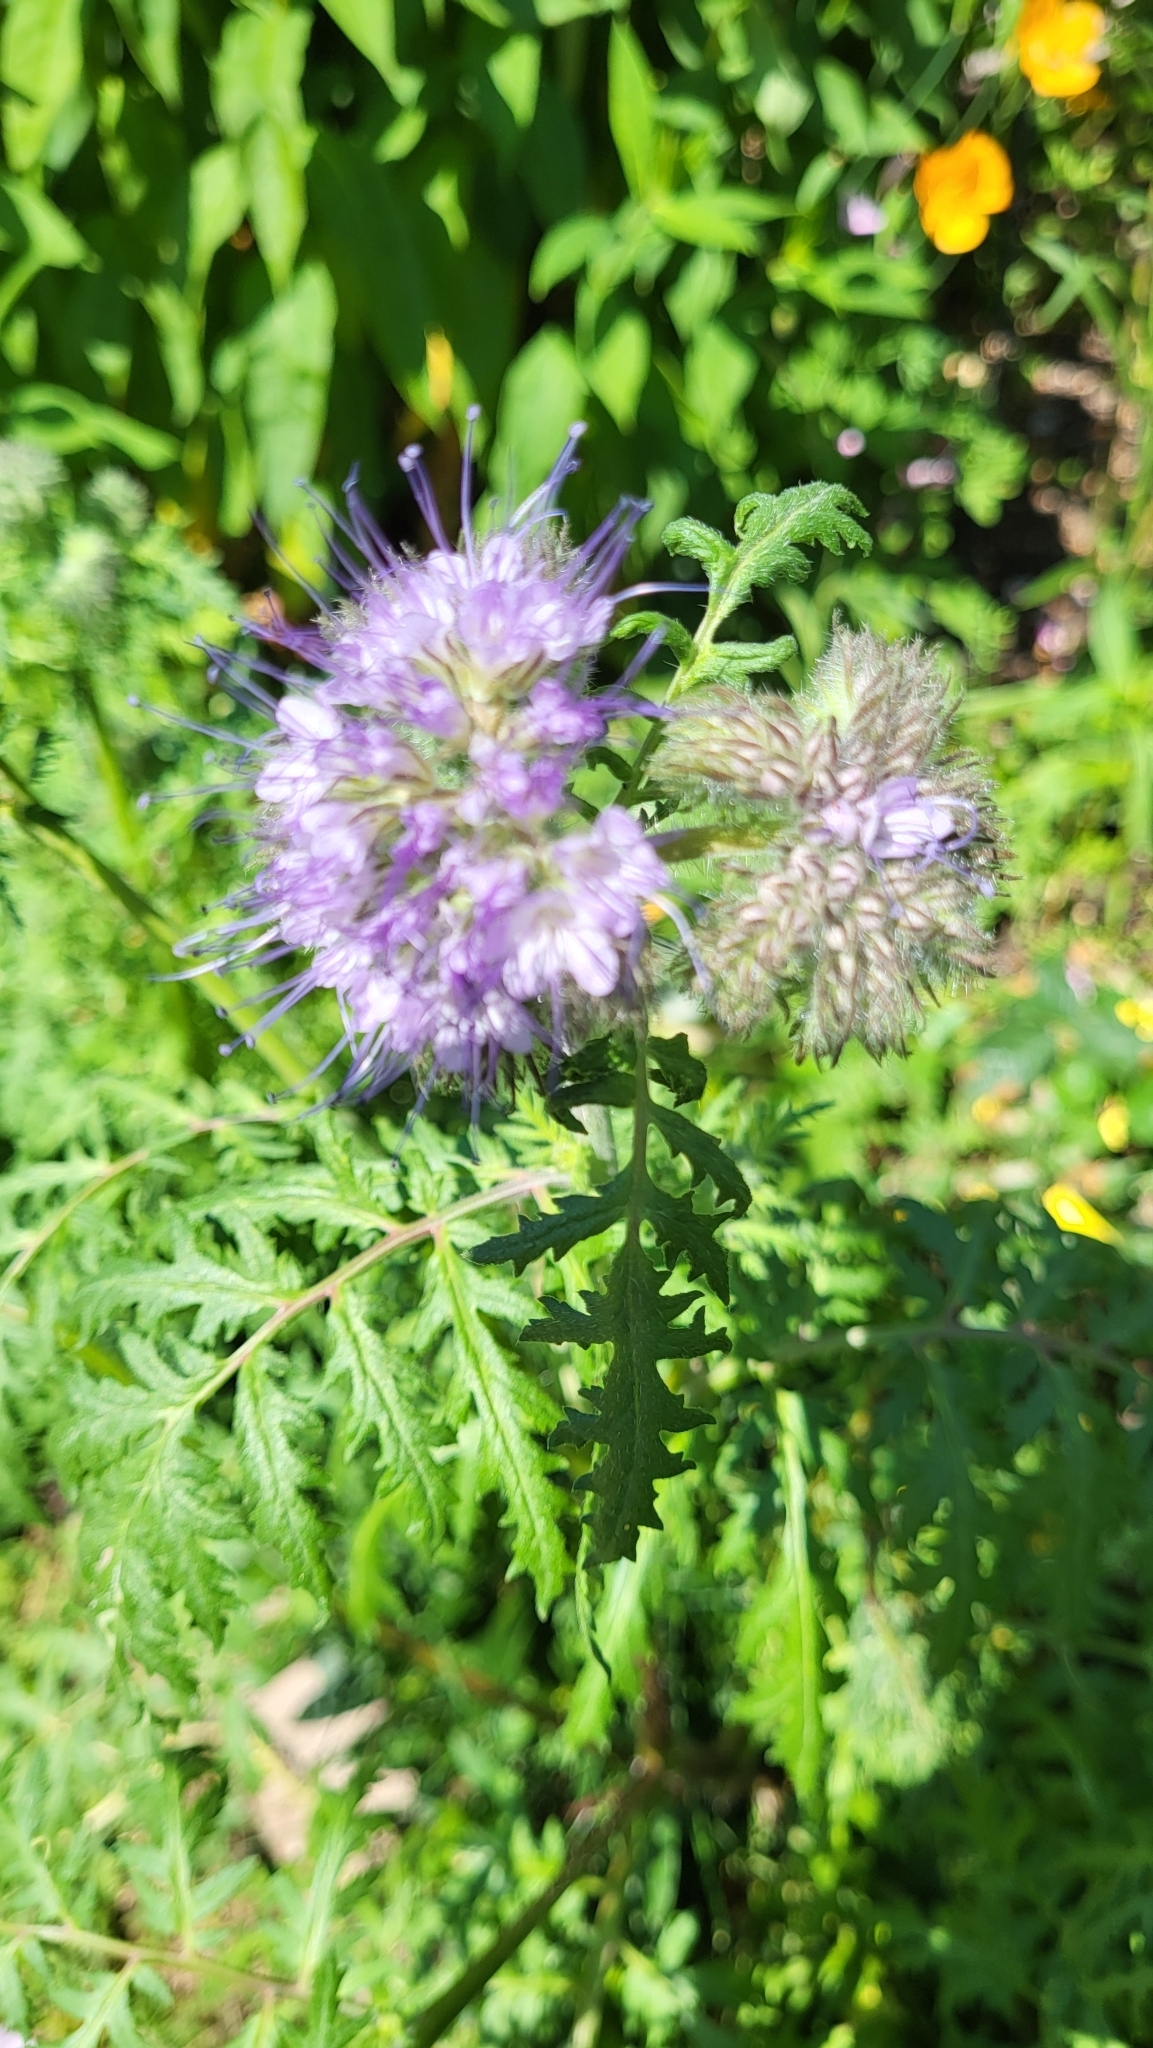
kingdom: Plantae
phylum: Tracheophyta
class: Magnoliopsida
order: Boraginales
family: Hydrophyllaceae
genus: Phacelia
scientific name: Phacelia tanacetifolia
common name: Phacelia
